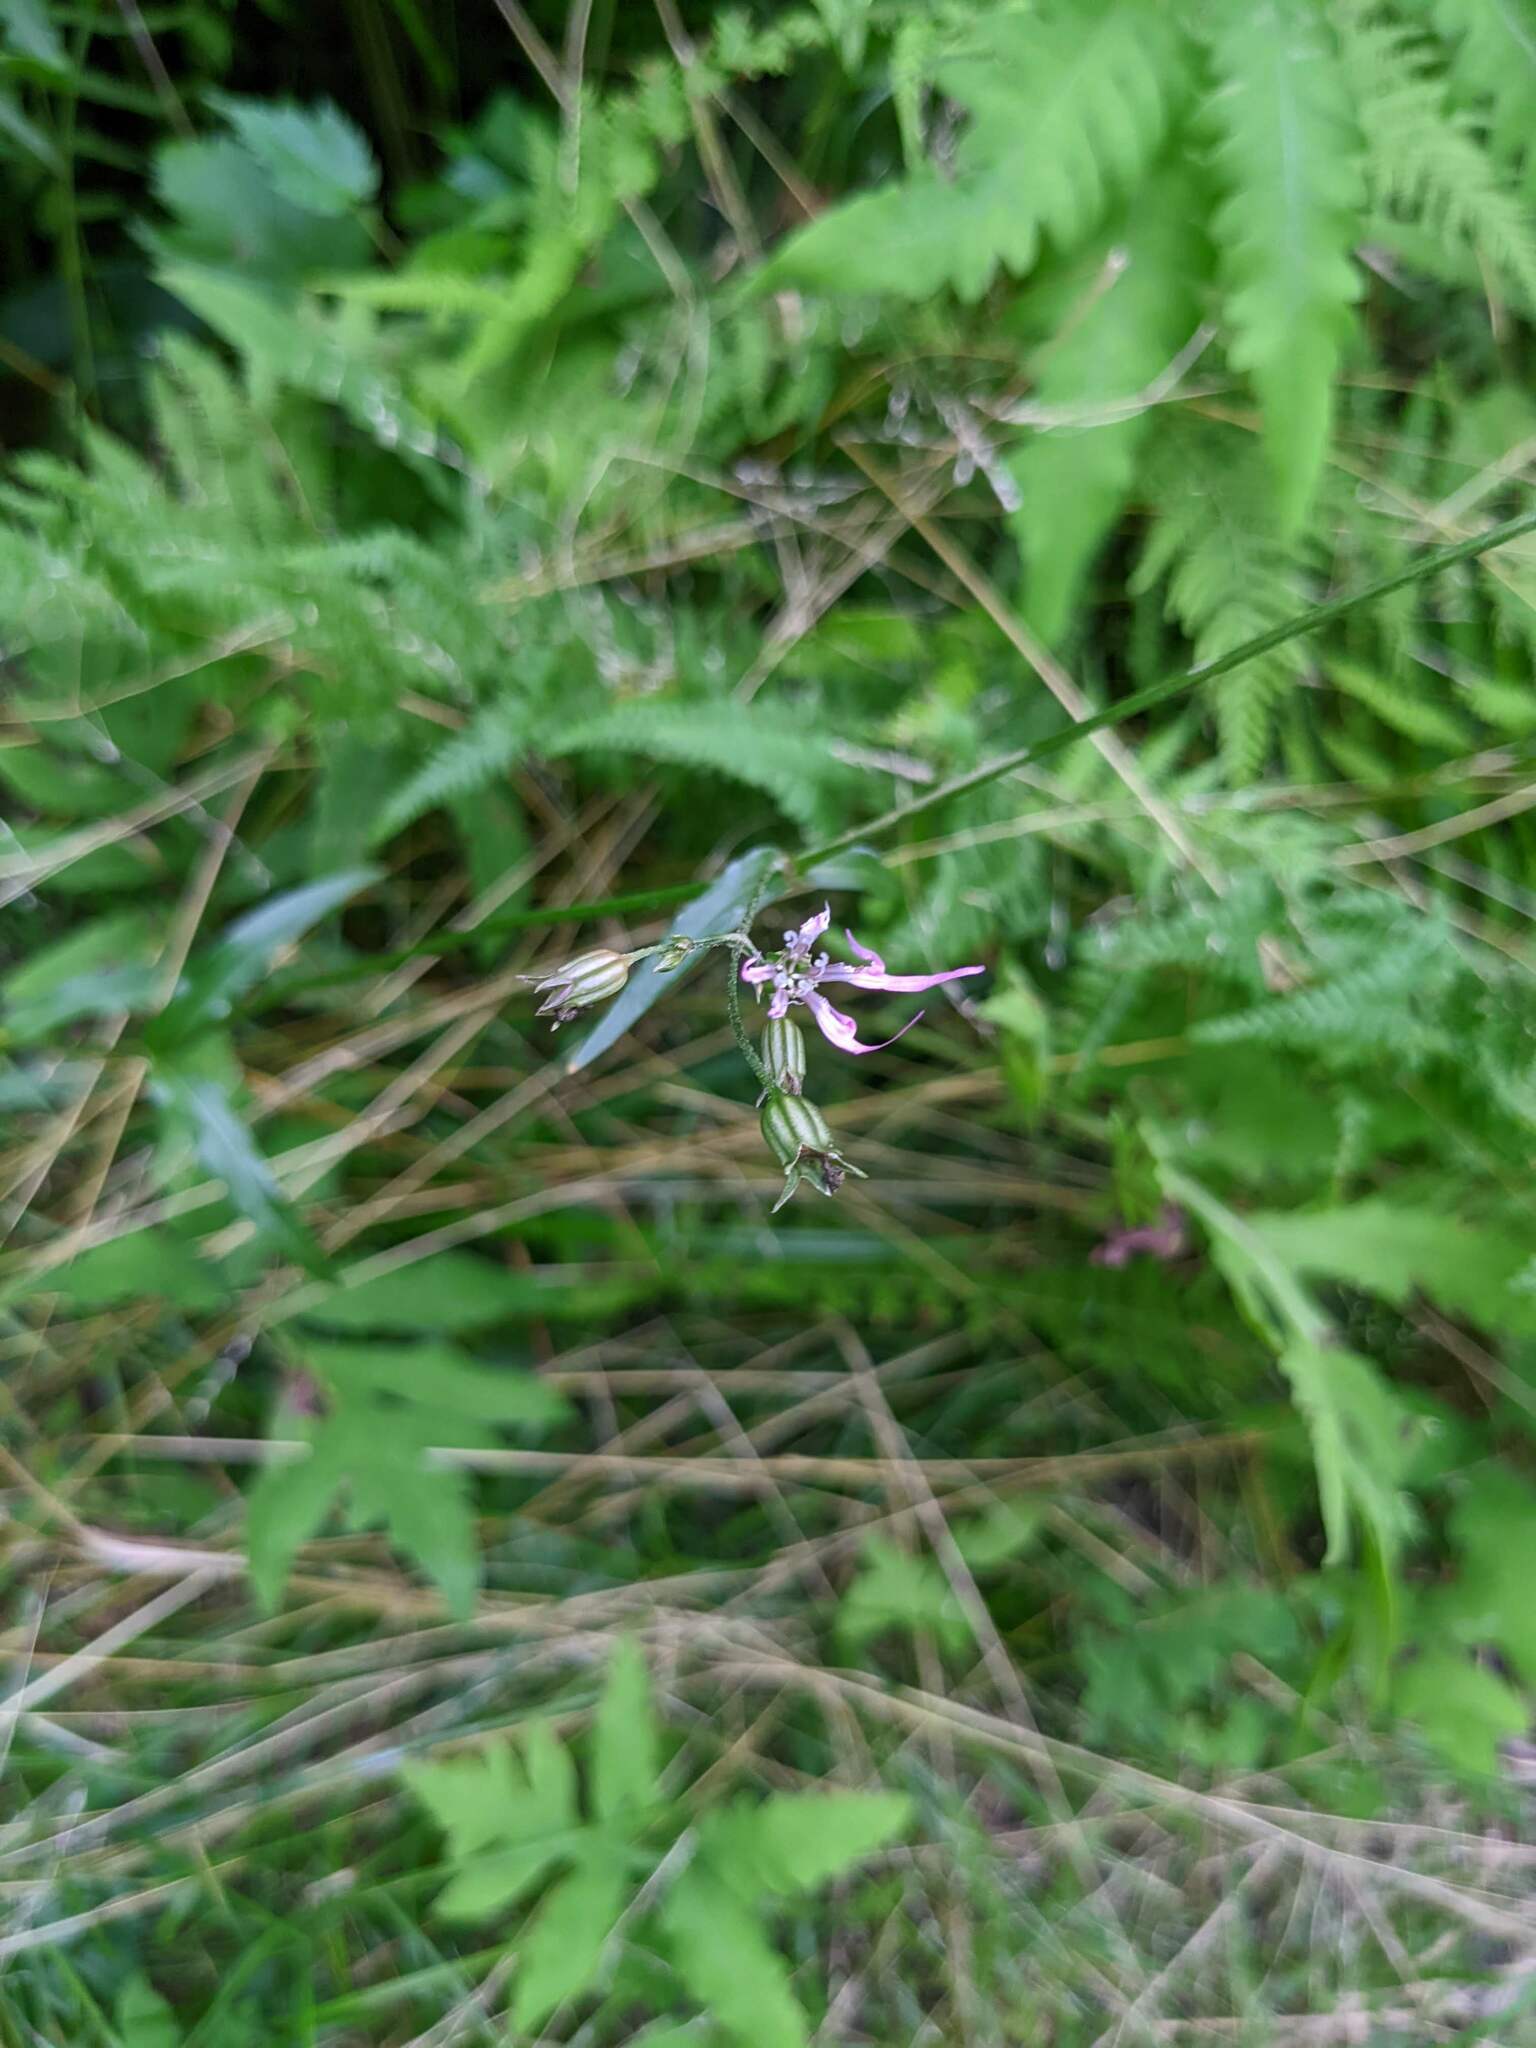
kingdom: Plantae
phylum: Tracheophyta
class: Magnoliopsida
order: Caryophyllales
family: Caryophyllaceae
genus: Silene
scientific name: Silene flos-cuculi
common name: Ragged-robin
